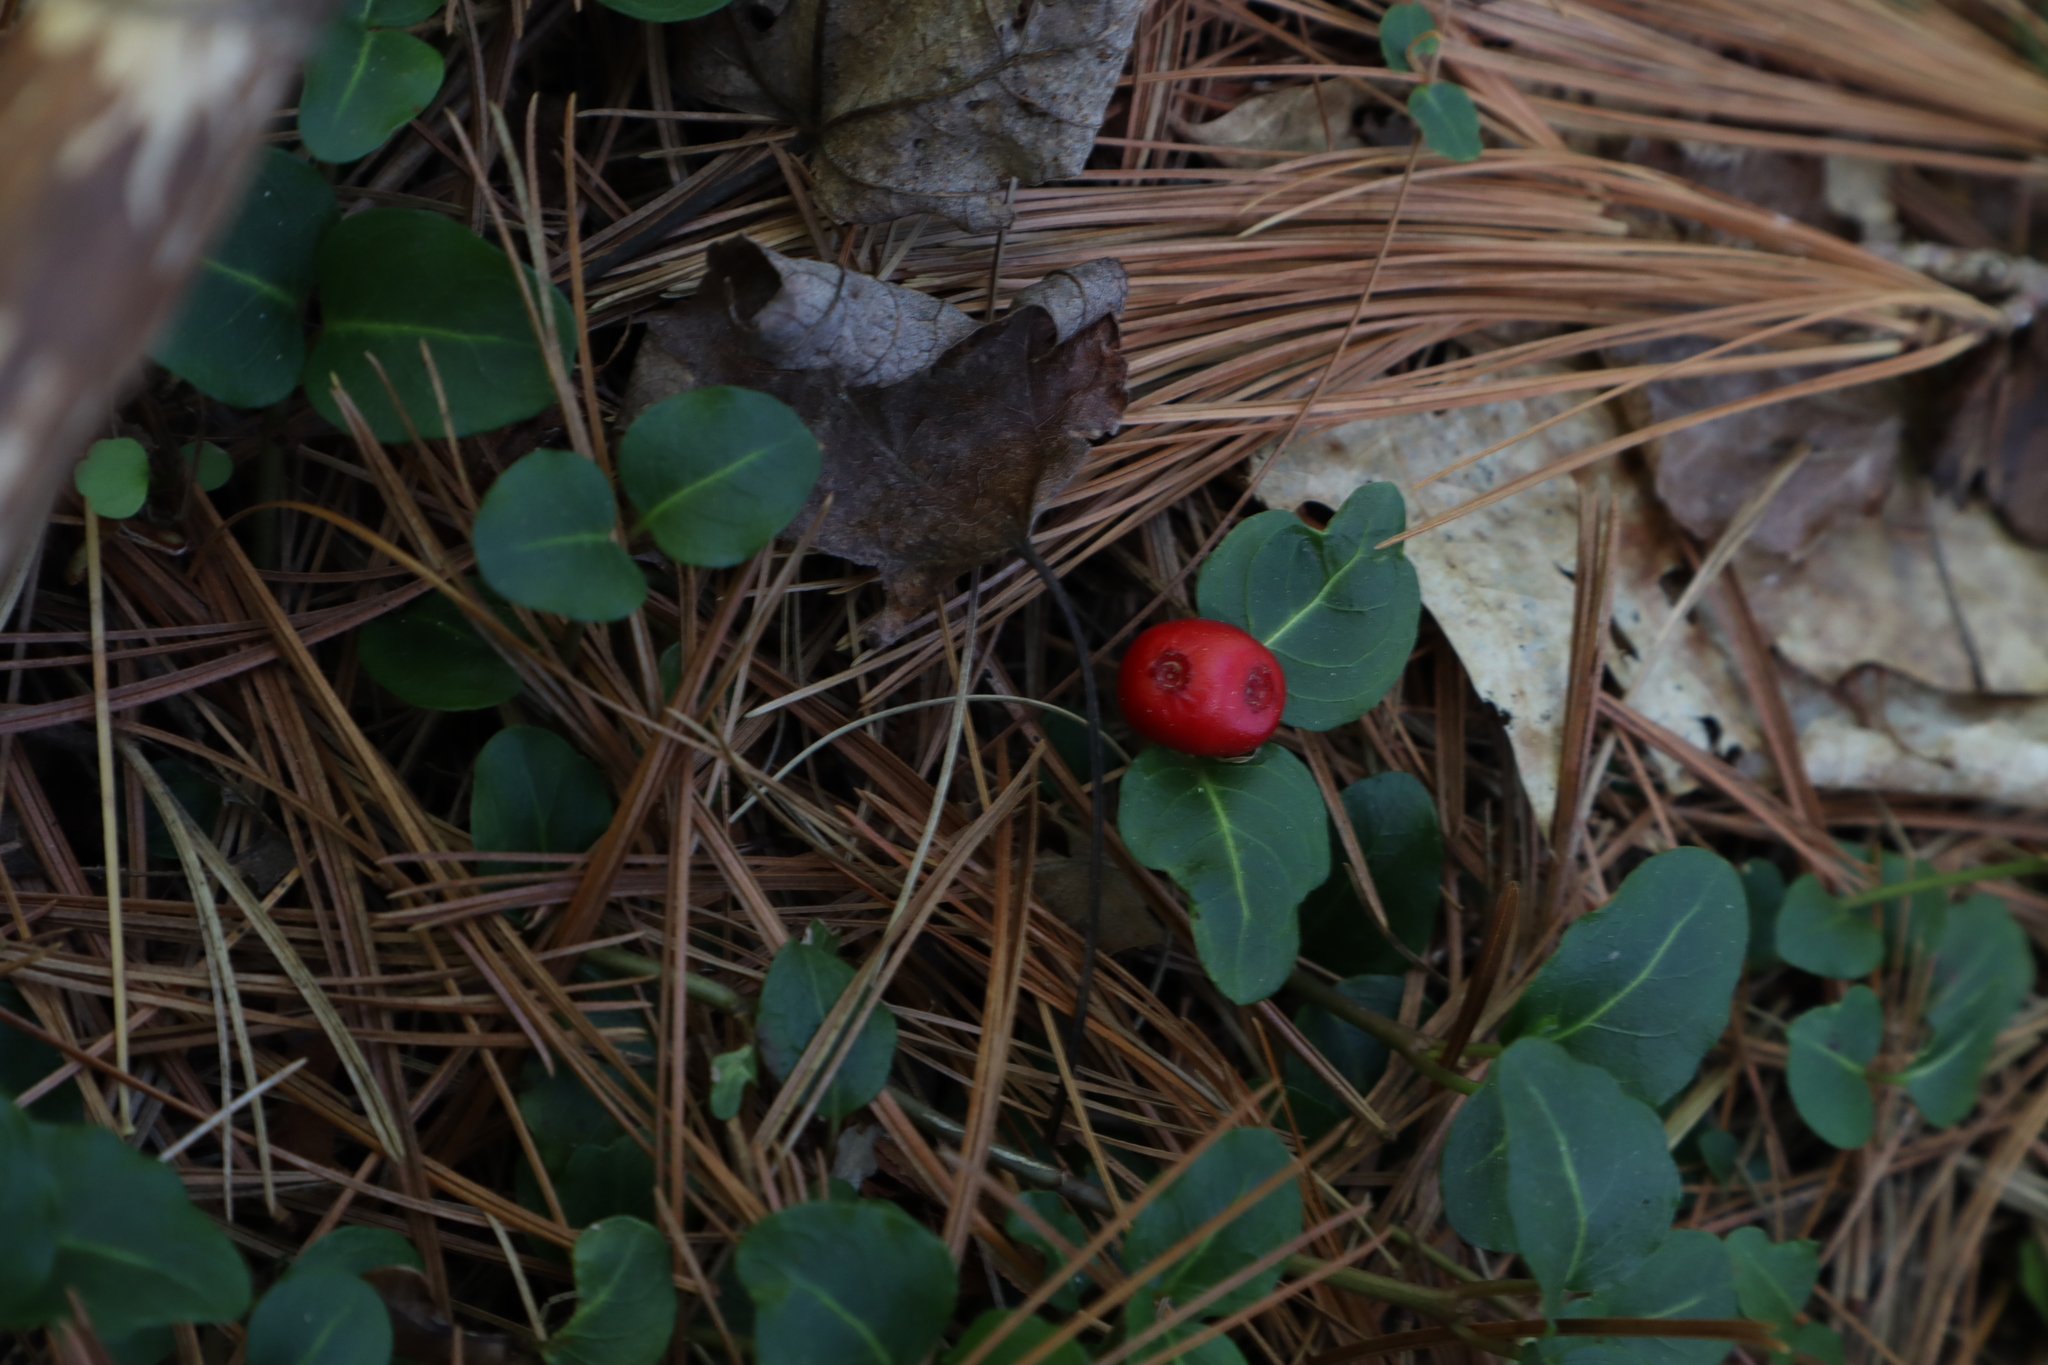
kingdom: Plantae
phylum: Tracheophyta
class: Magnoliopsida
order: Gentianales
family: Rubiaceae
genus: Mitchella
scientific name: Mitchella repens
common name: Partridge-berry
